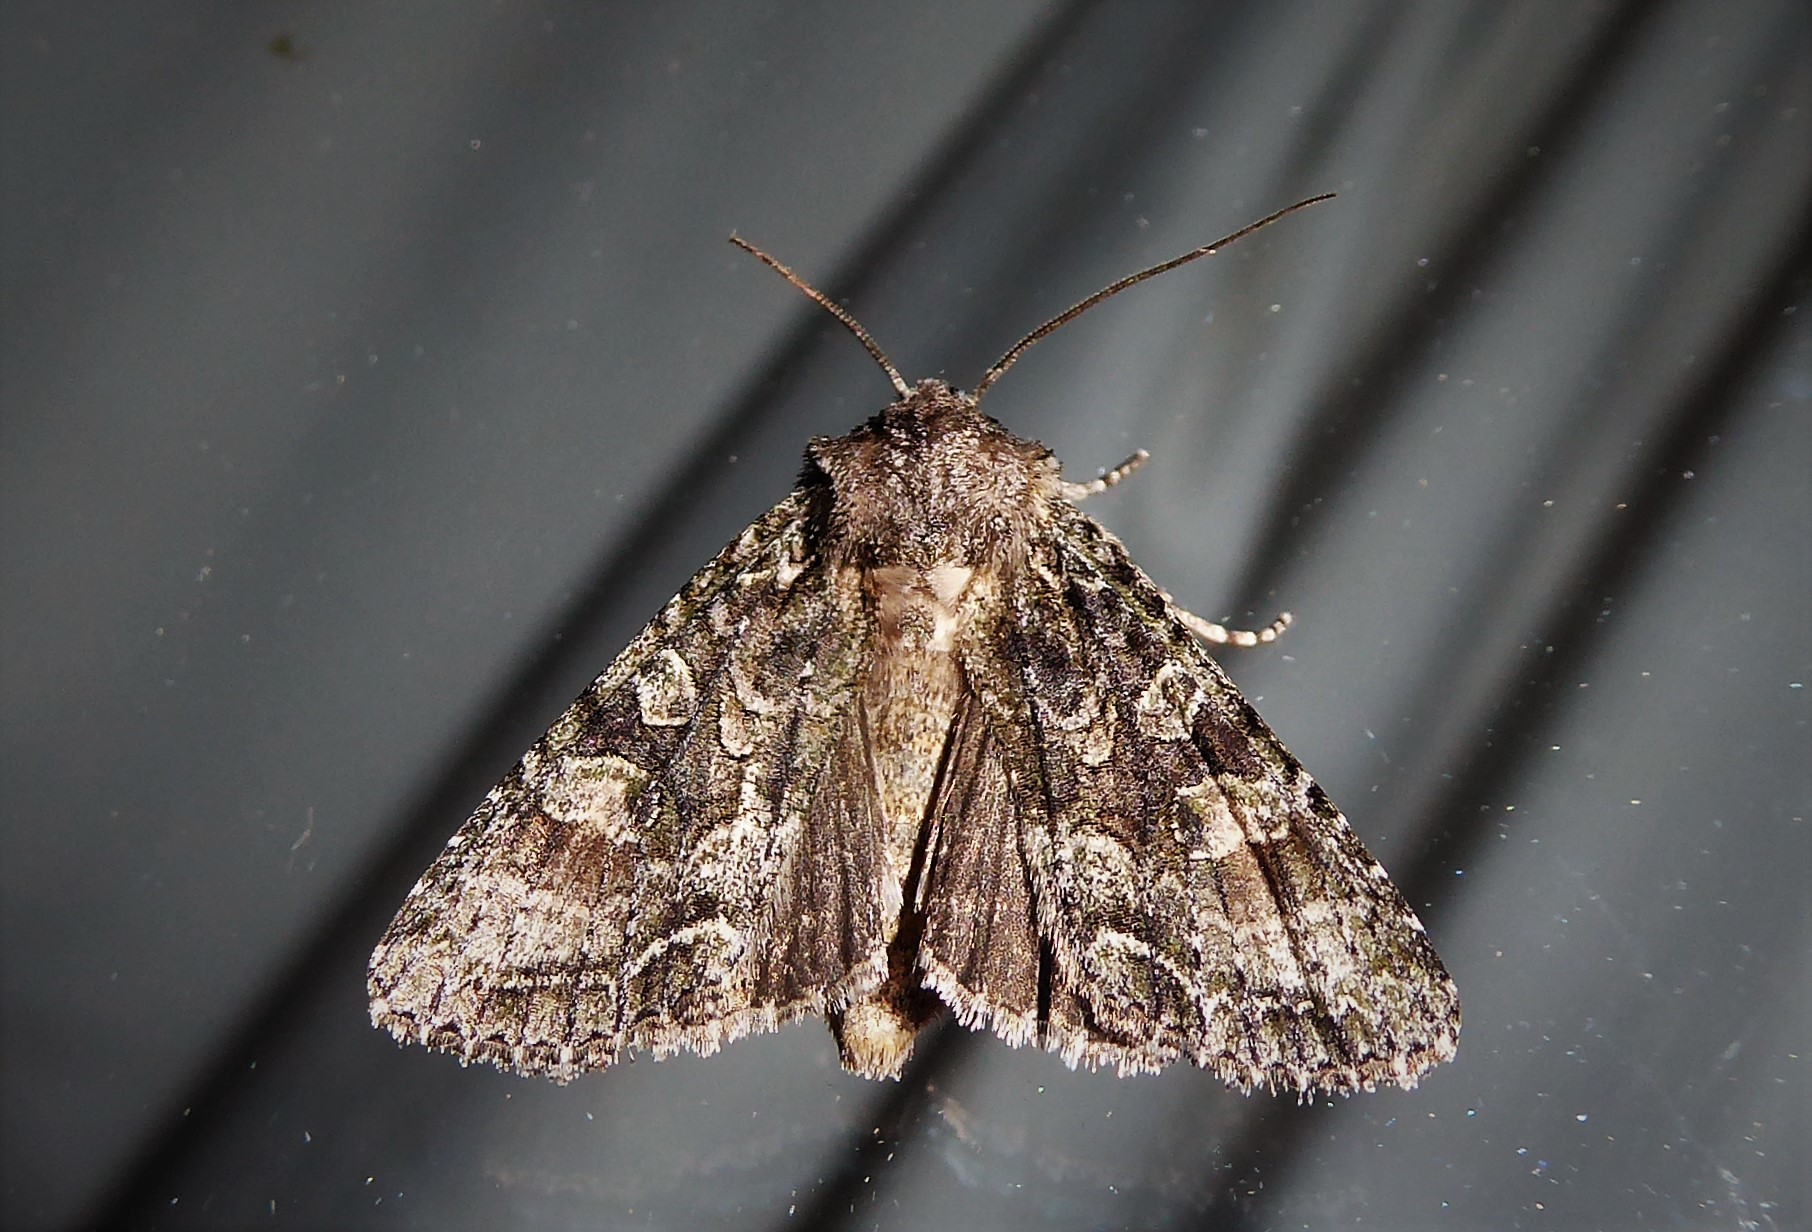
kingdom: Animalia
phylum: Arthropoda
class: Insecta
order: Lepidoptera
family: Noctuidae
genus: Ichneutica
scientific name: Ichneutica mutans
